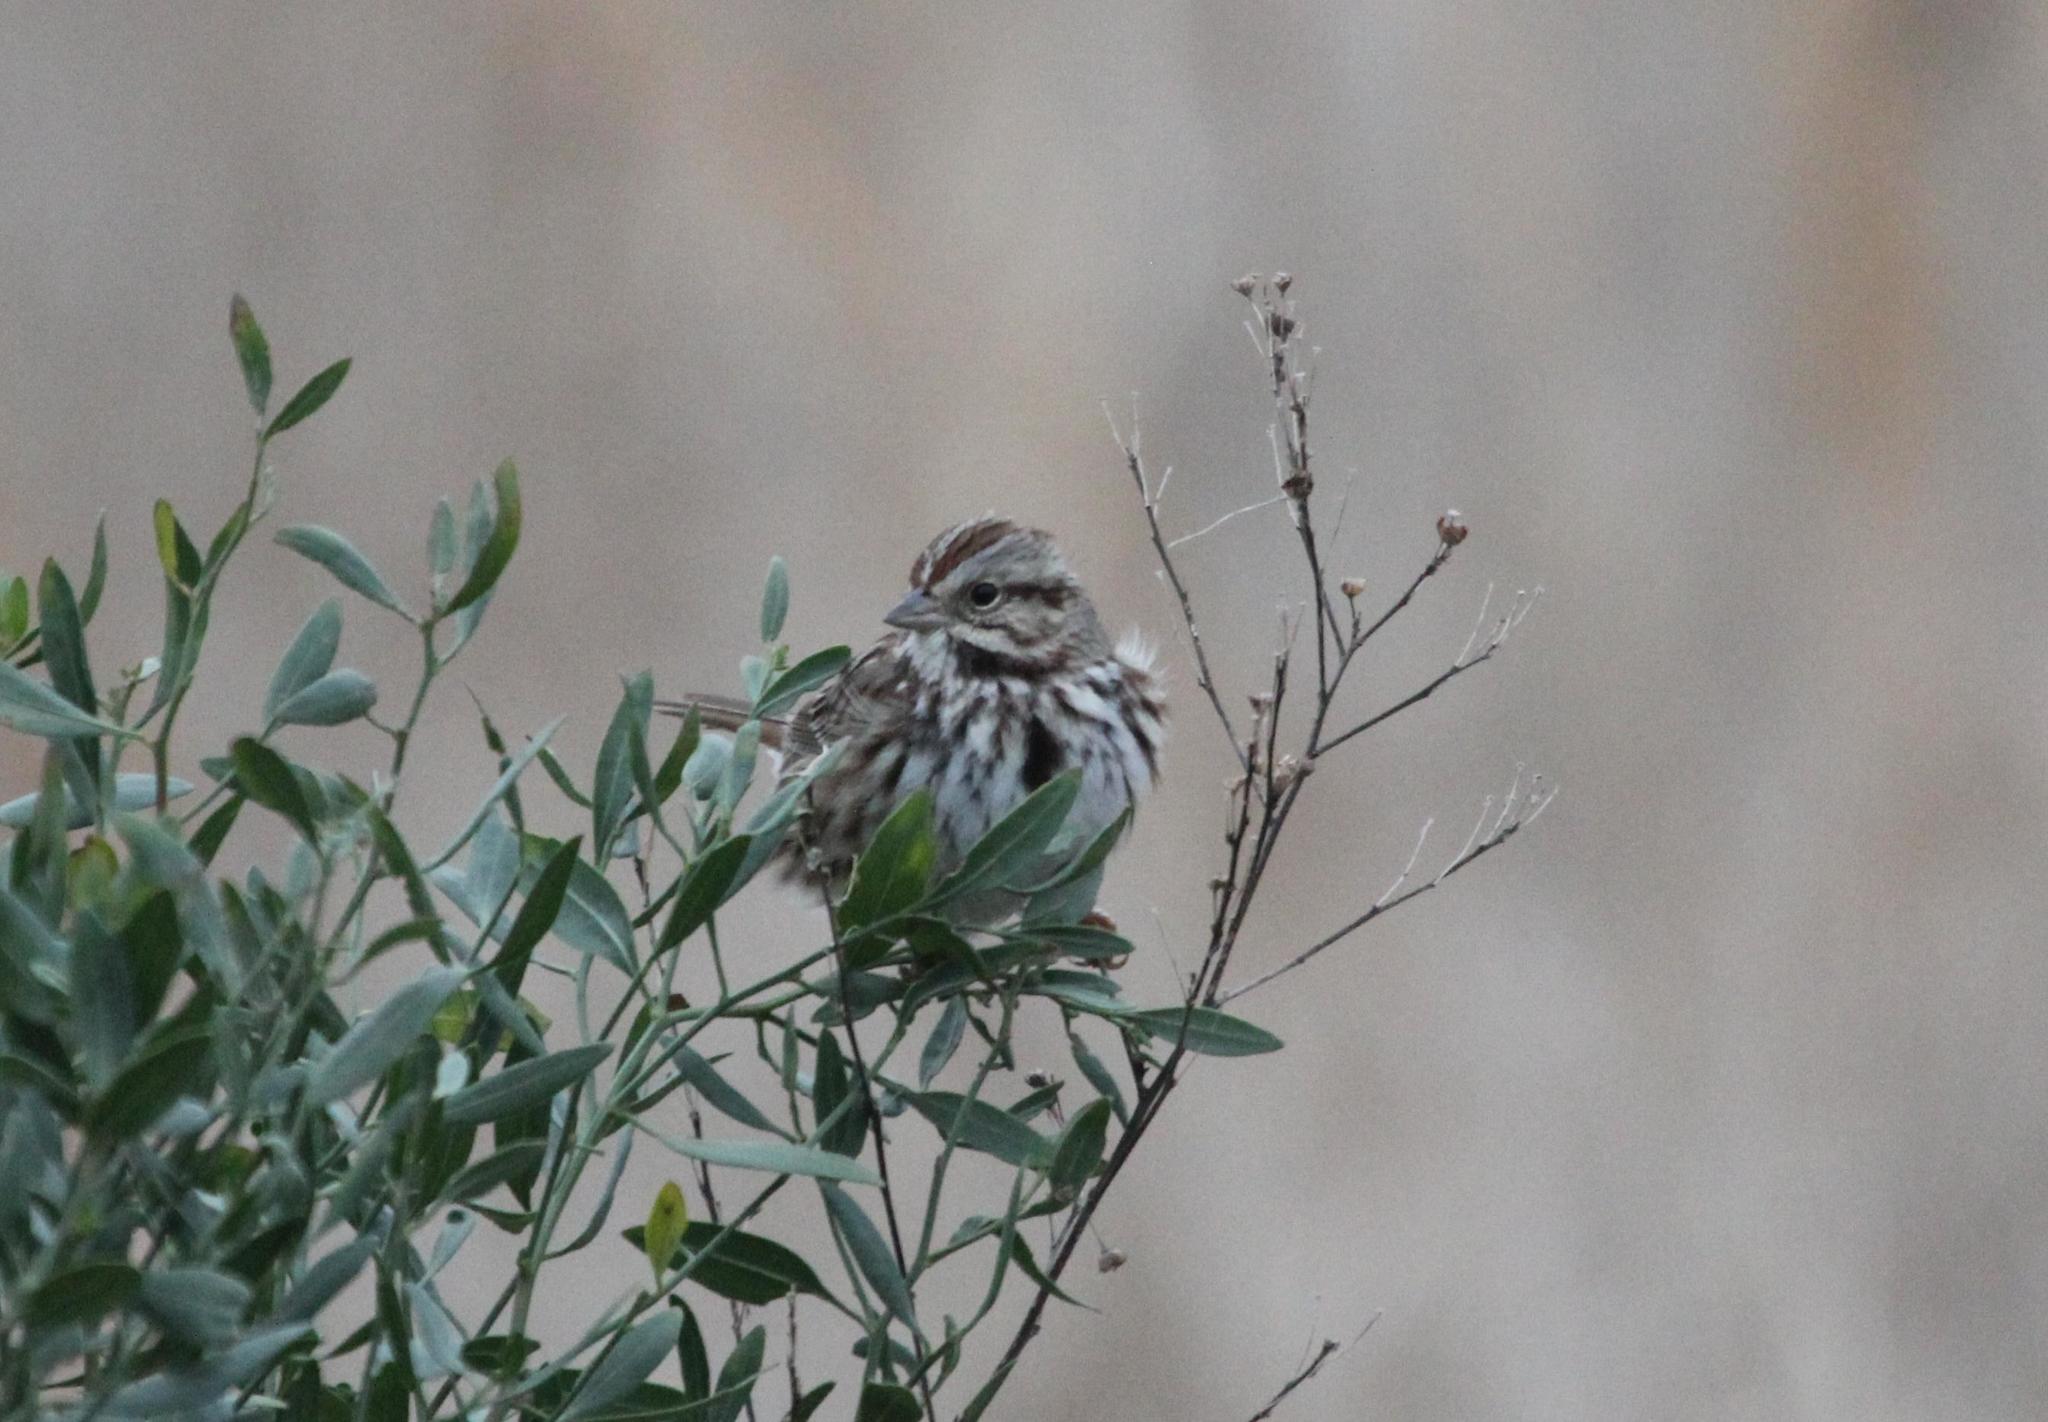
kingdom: Animalia
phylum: Chordata
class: Aves
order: Passeriformes
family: Passerellidae
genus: Melospiza
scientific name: Melospiza melodia
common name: Song sparrow
